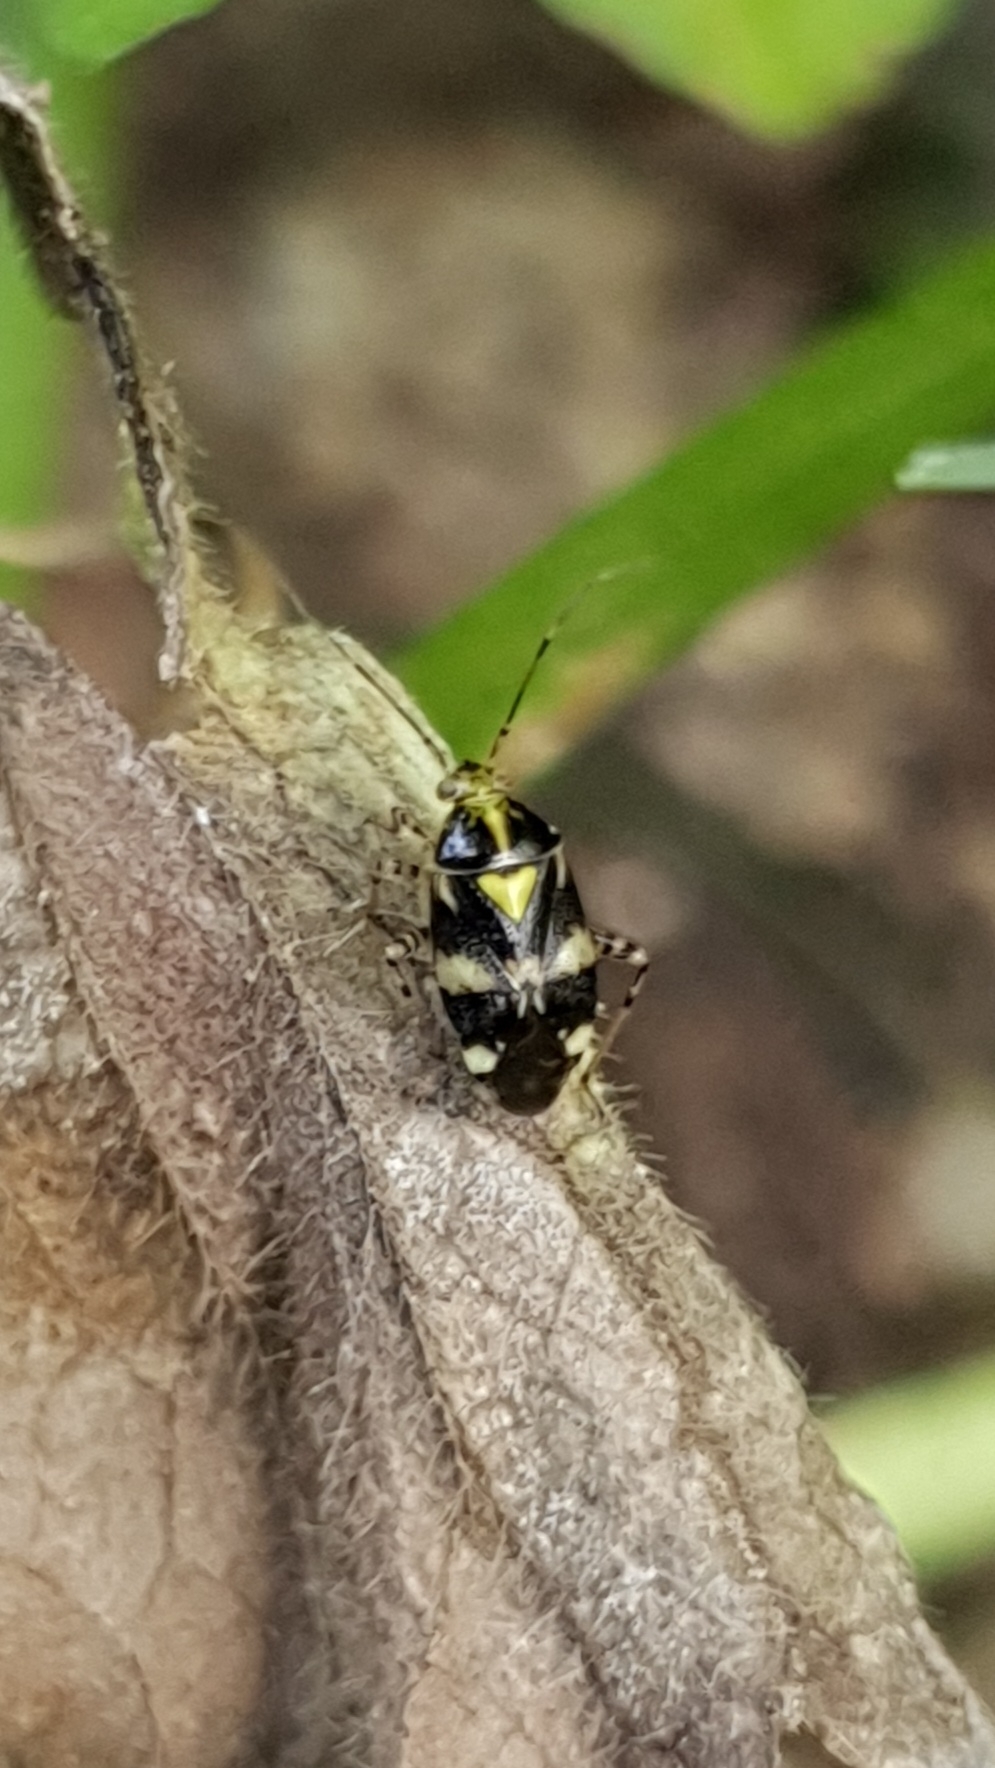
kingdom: Animalia
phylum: Arthropoda
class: Insecta
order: Hemiptera
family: Miridae
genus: Liocoris
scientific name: Liocoris tripustulatus
